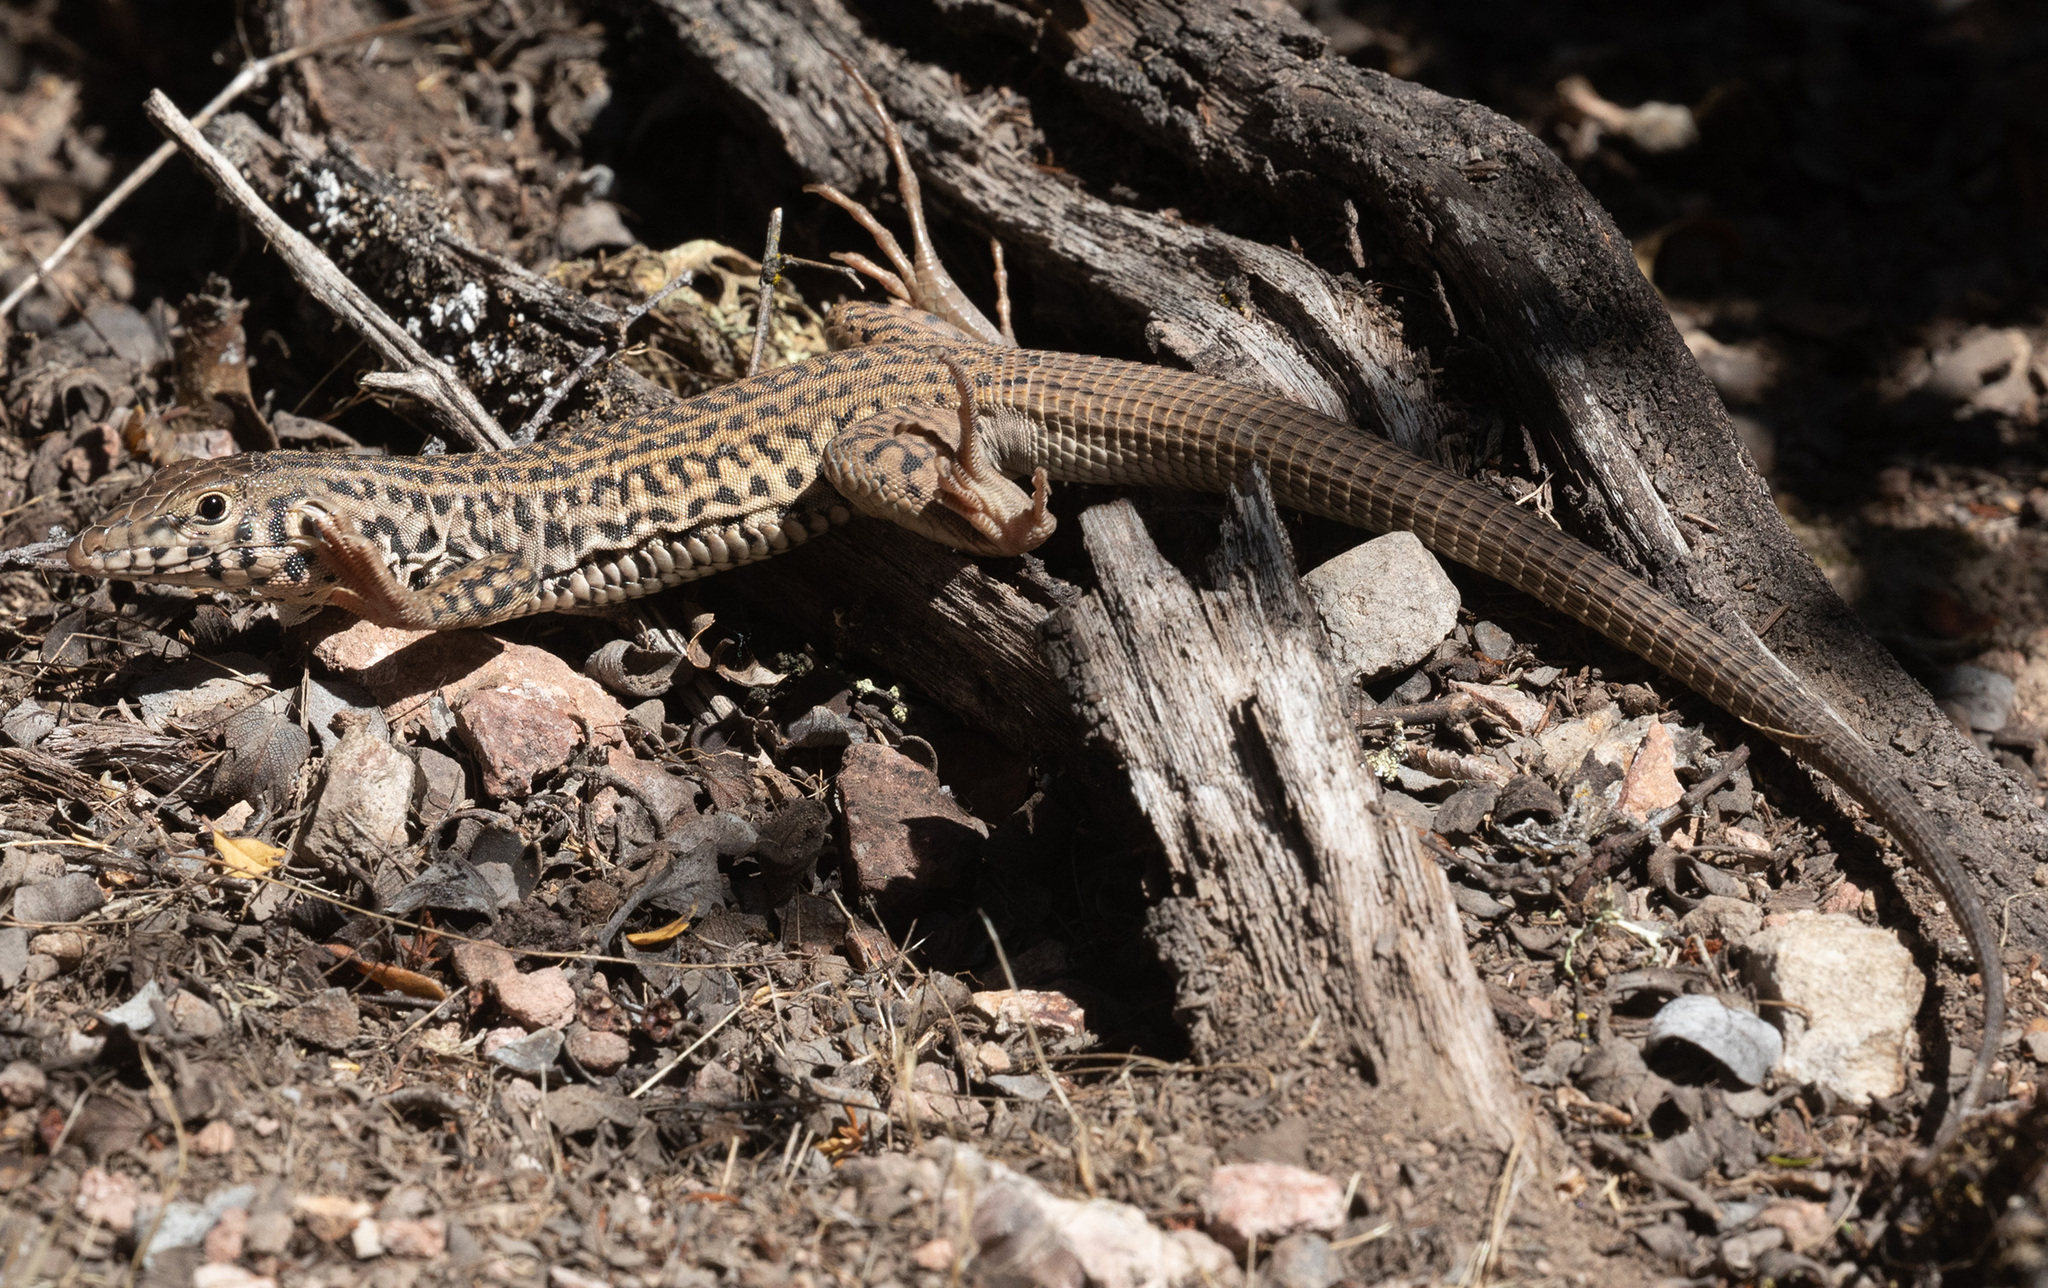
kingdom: Animalia
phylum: Chordata
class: Squamata
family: Teiidae
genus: Aspidoscelis
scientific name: Aspidoscelis tigris
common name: Tiger whiptail
